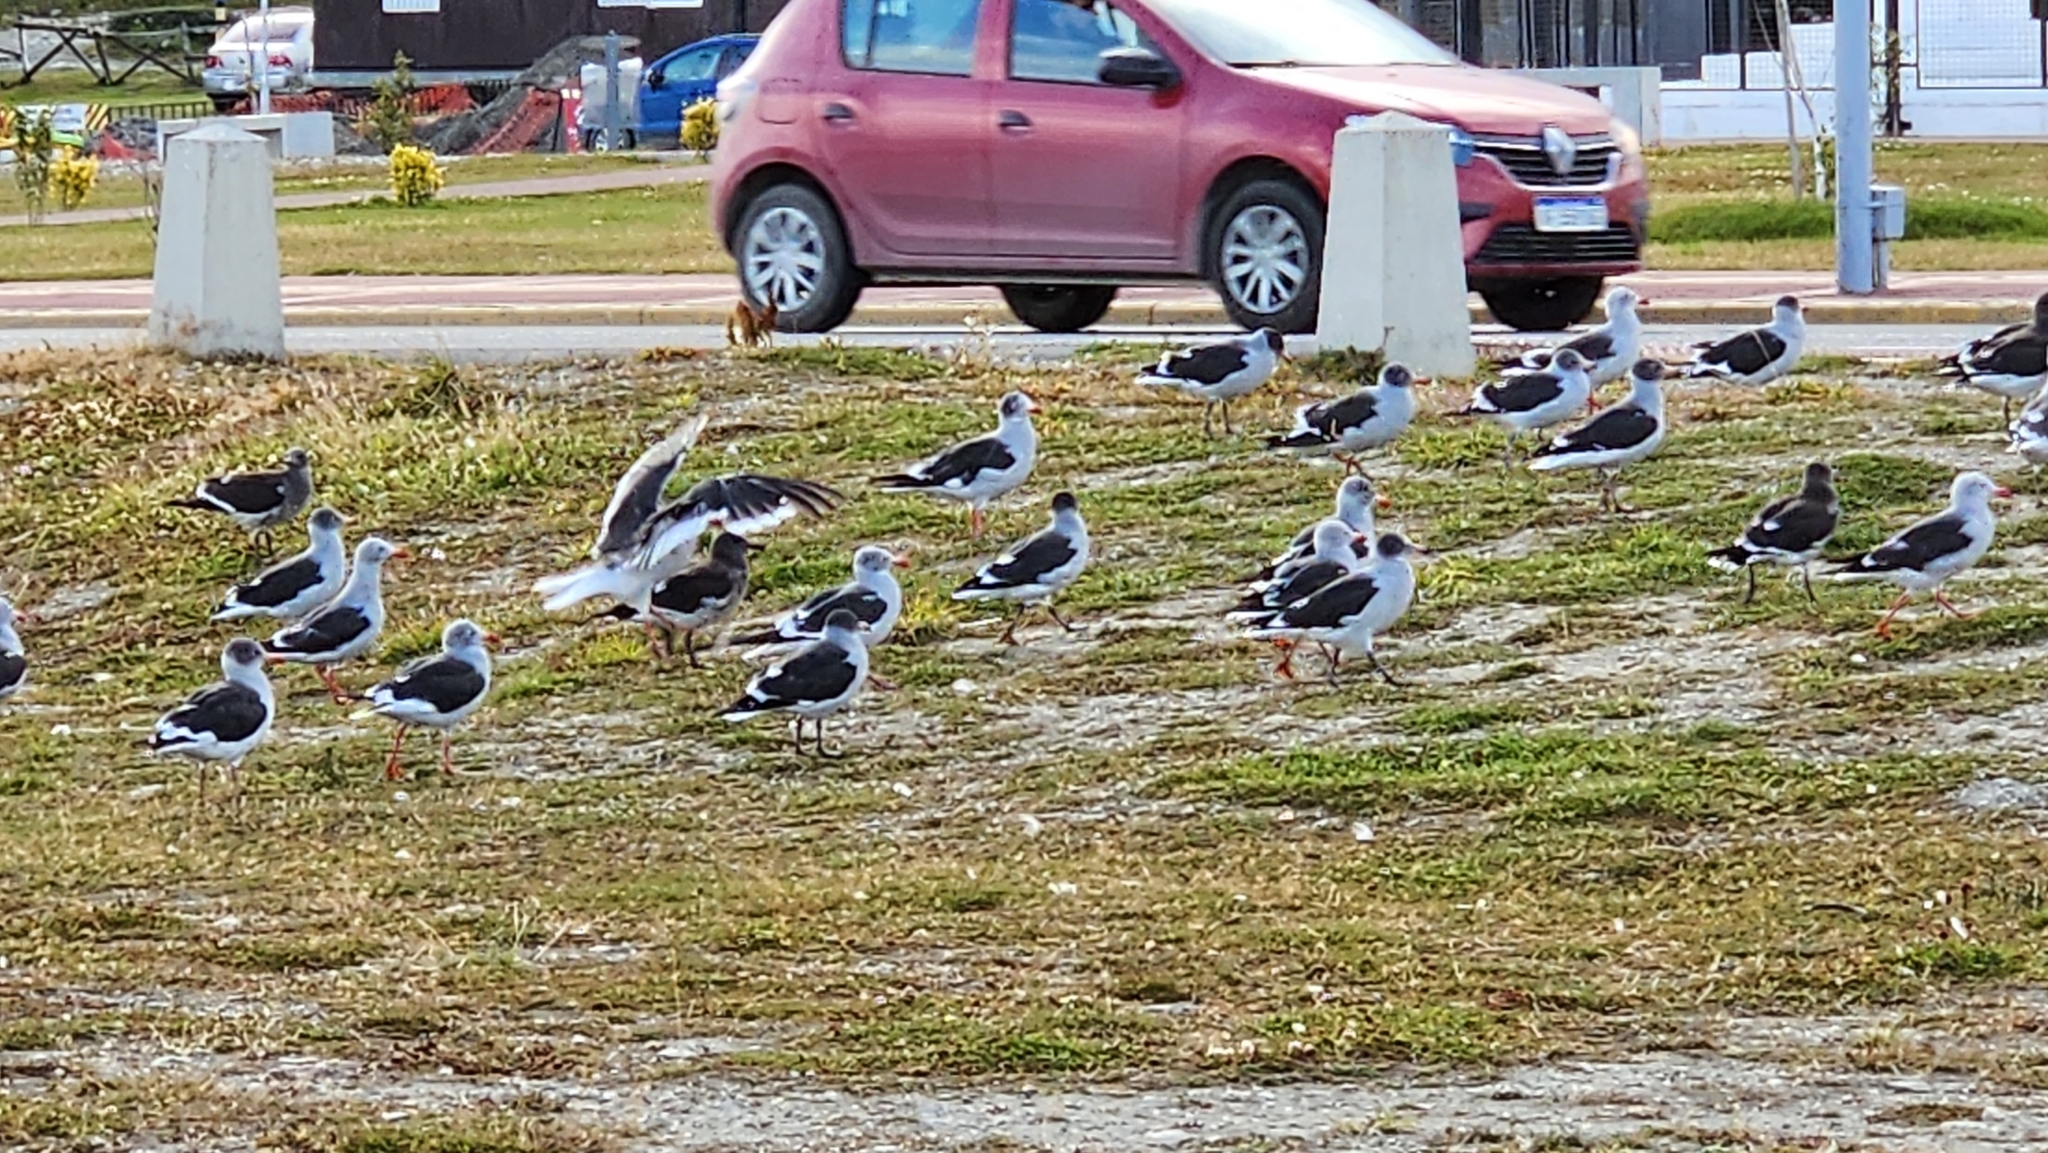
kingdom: Animalia
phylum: Chordata
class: Aves
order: Charadriiformes
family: Laridae
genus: Leucophaeus
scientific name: Leucophaeus scoresbii
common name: Dolphin gull
